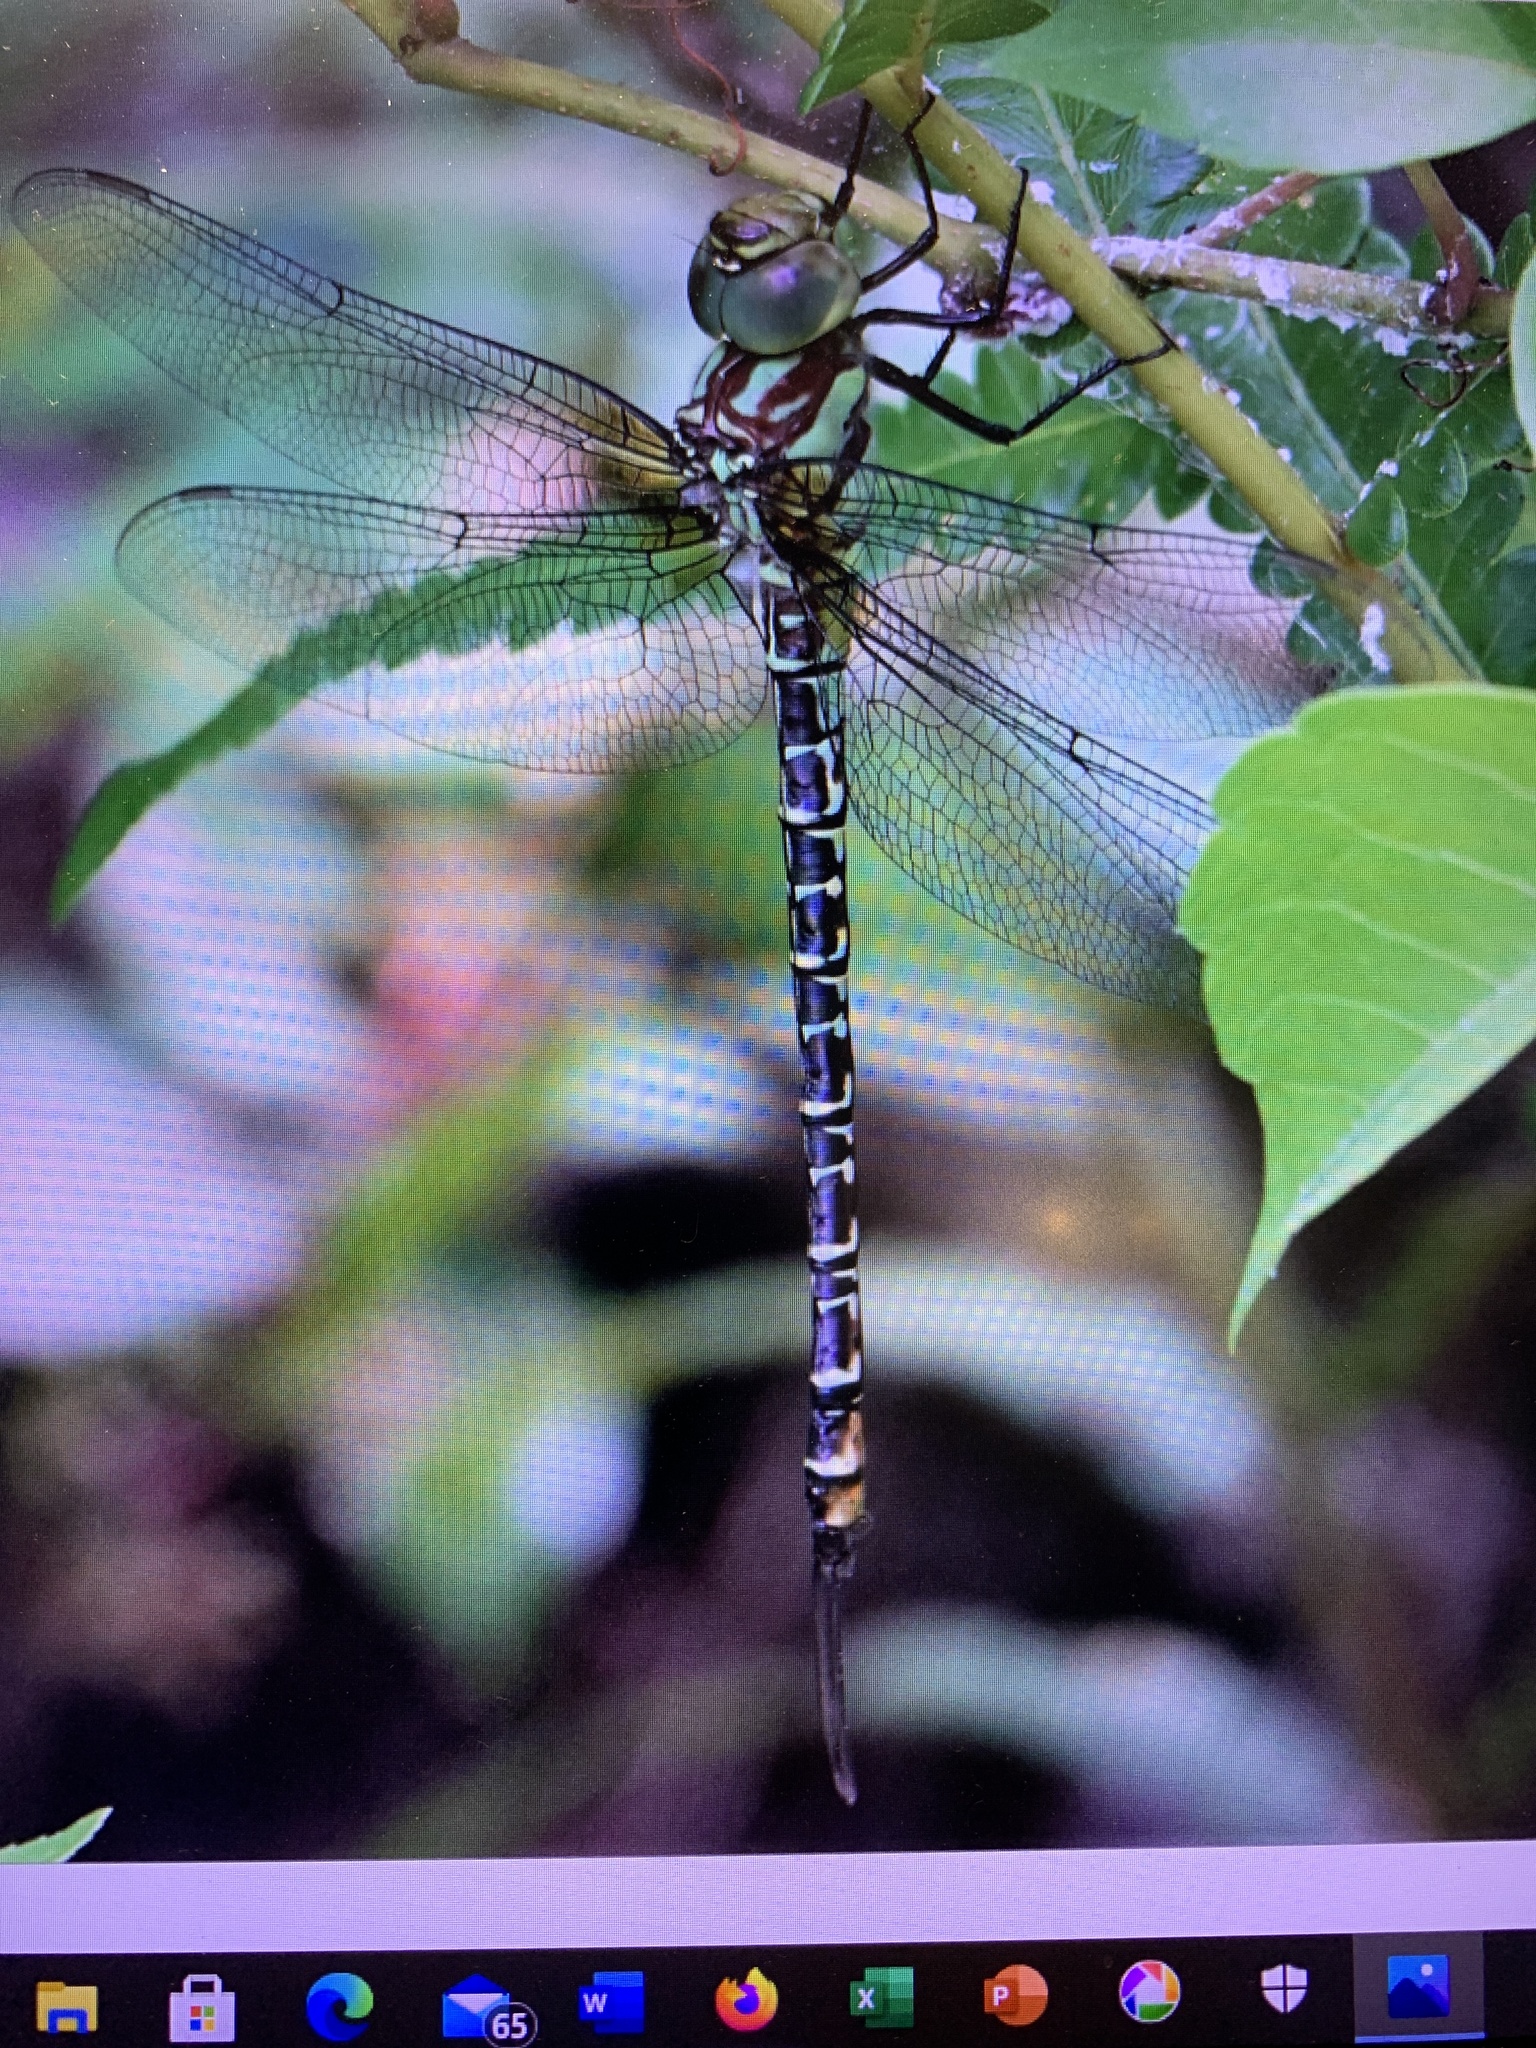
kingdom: Animalia
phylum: Arthropoda
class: Insecta
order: Odonata
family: Aeshnidae
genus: Coryphaeschna
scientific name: Coryphaeschna ingens
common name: Regal darner
